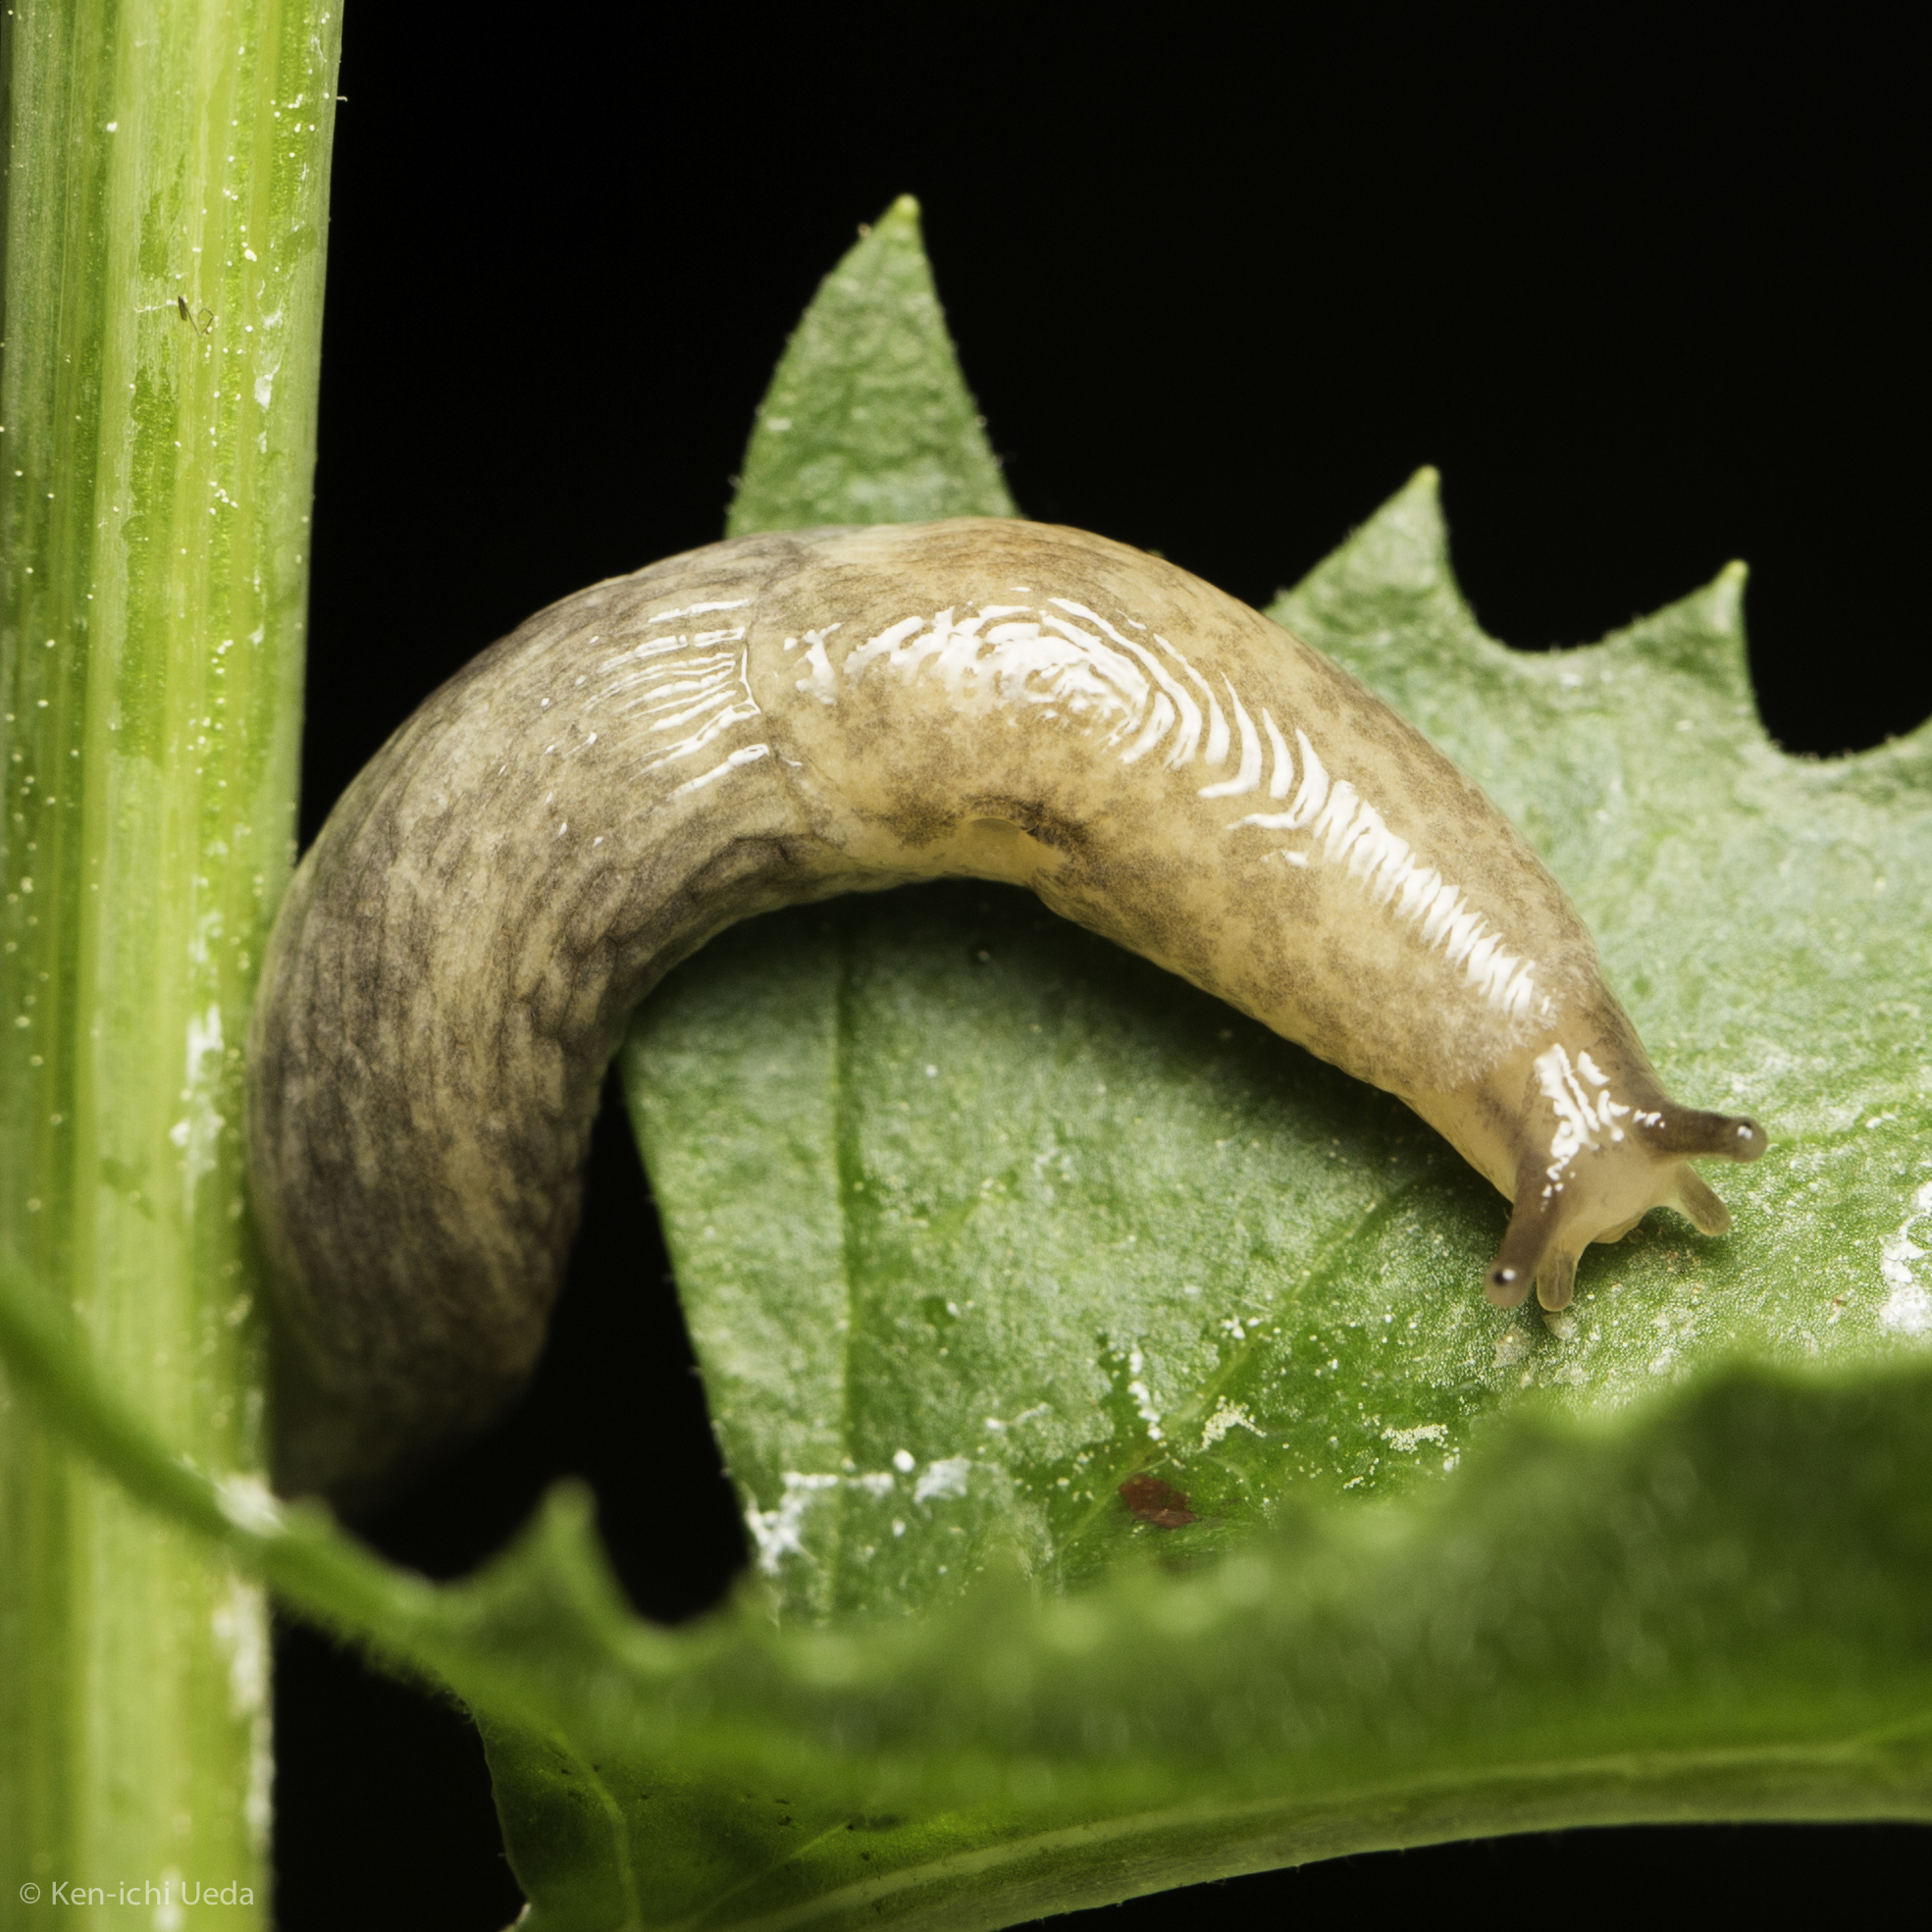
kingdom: Animalia
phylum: Mollusca
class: Gastropoda
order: Stylommatophora
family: Agriolimacidae
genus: Deroceras
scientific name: Deroceras reticulatum
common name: Gray field slug
